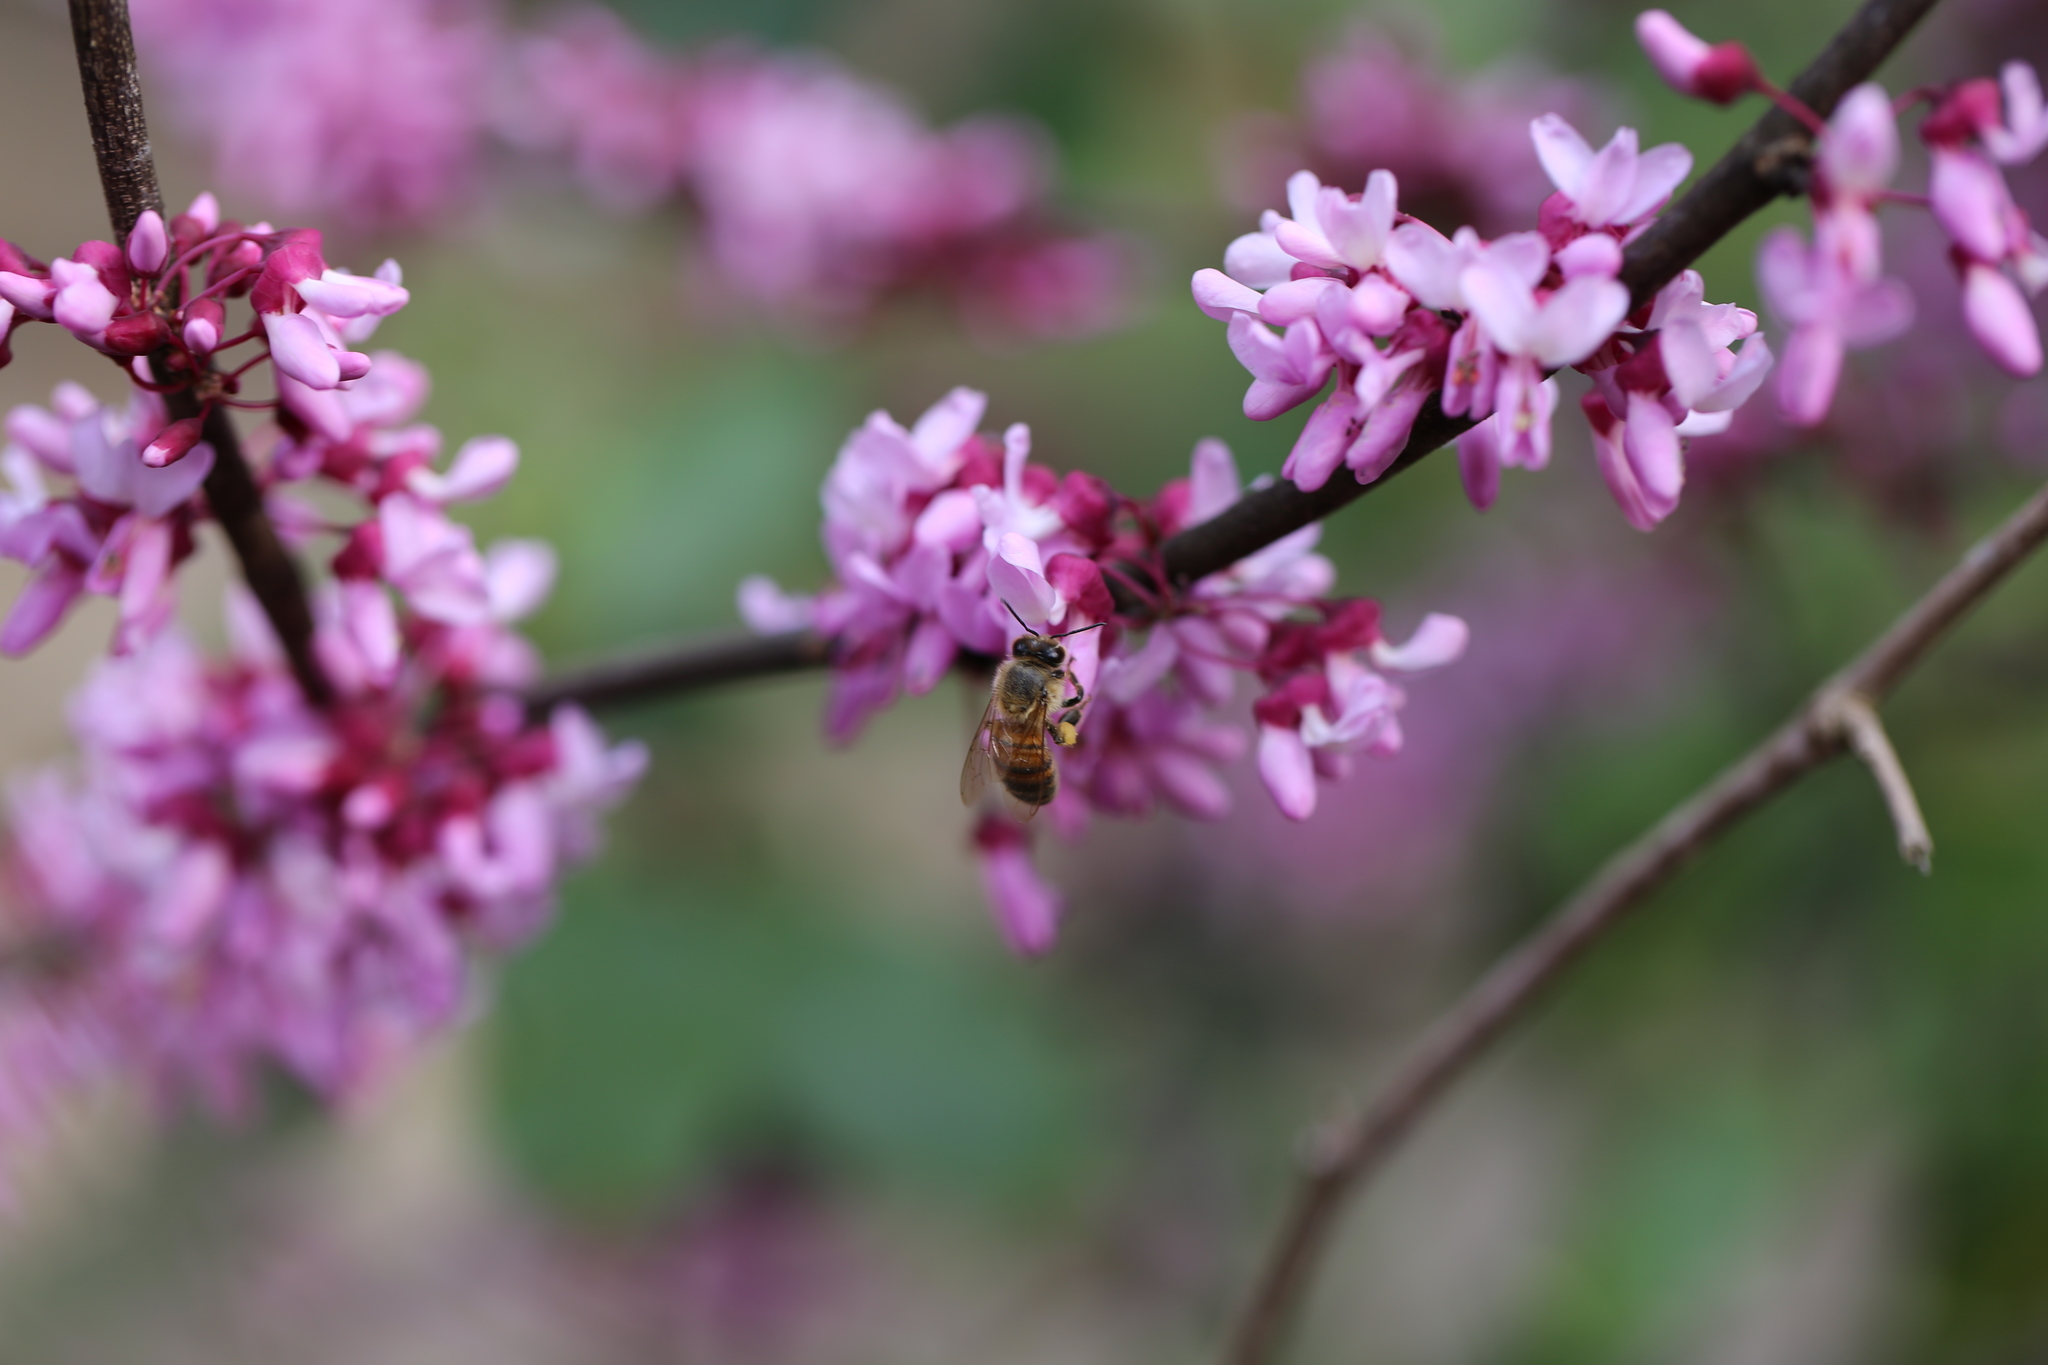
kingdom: Animalia
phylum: Arthropoda
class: Insecta
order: Hymenoptera
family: Apidae
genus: Apis
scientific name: Apis mellifera
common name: Honey bee
